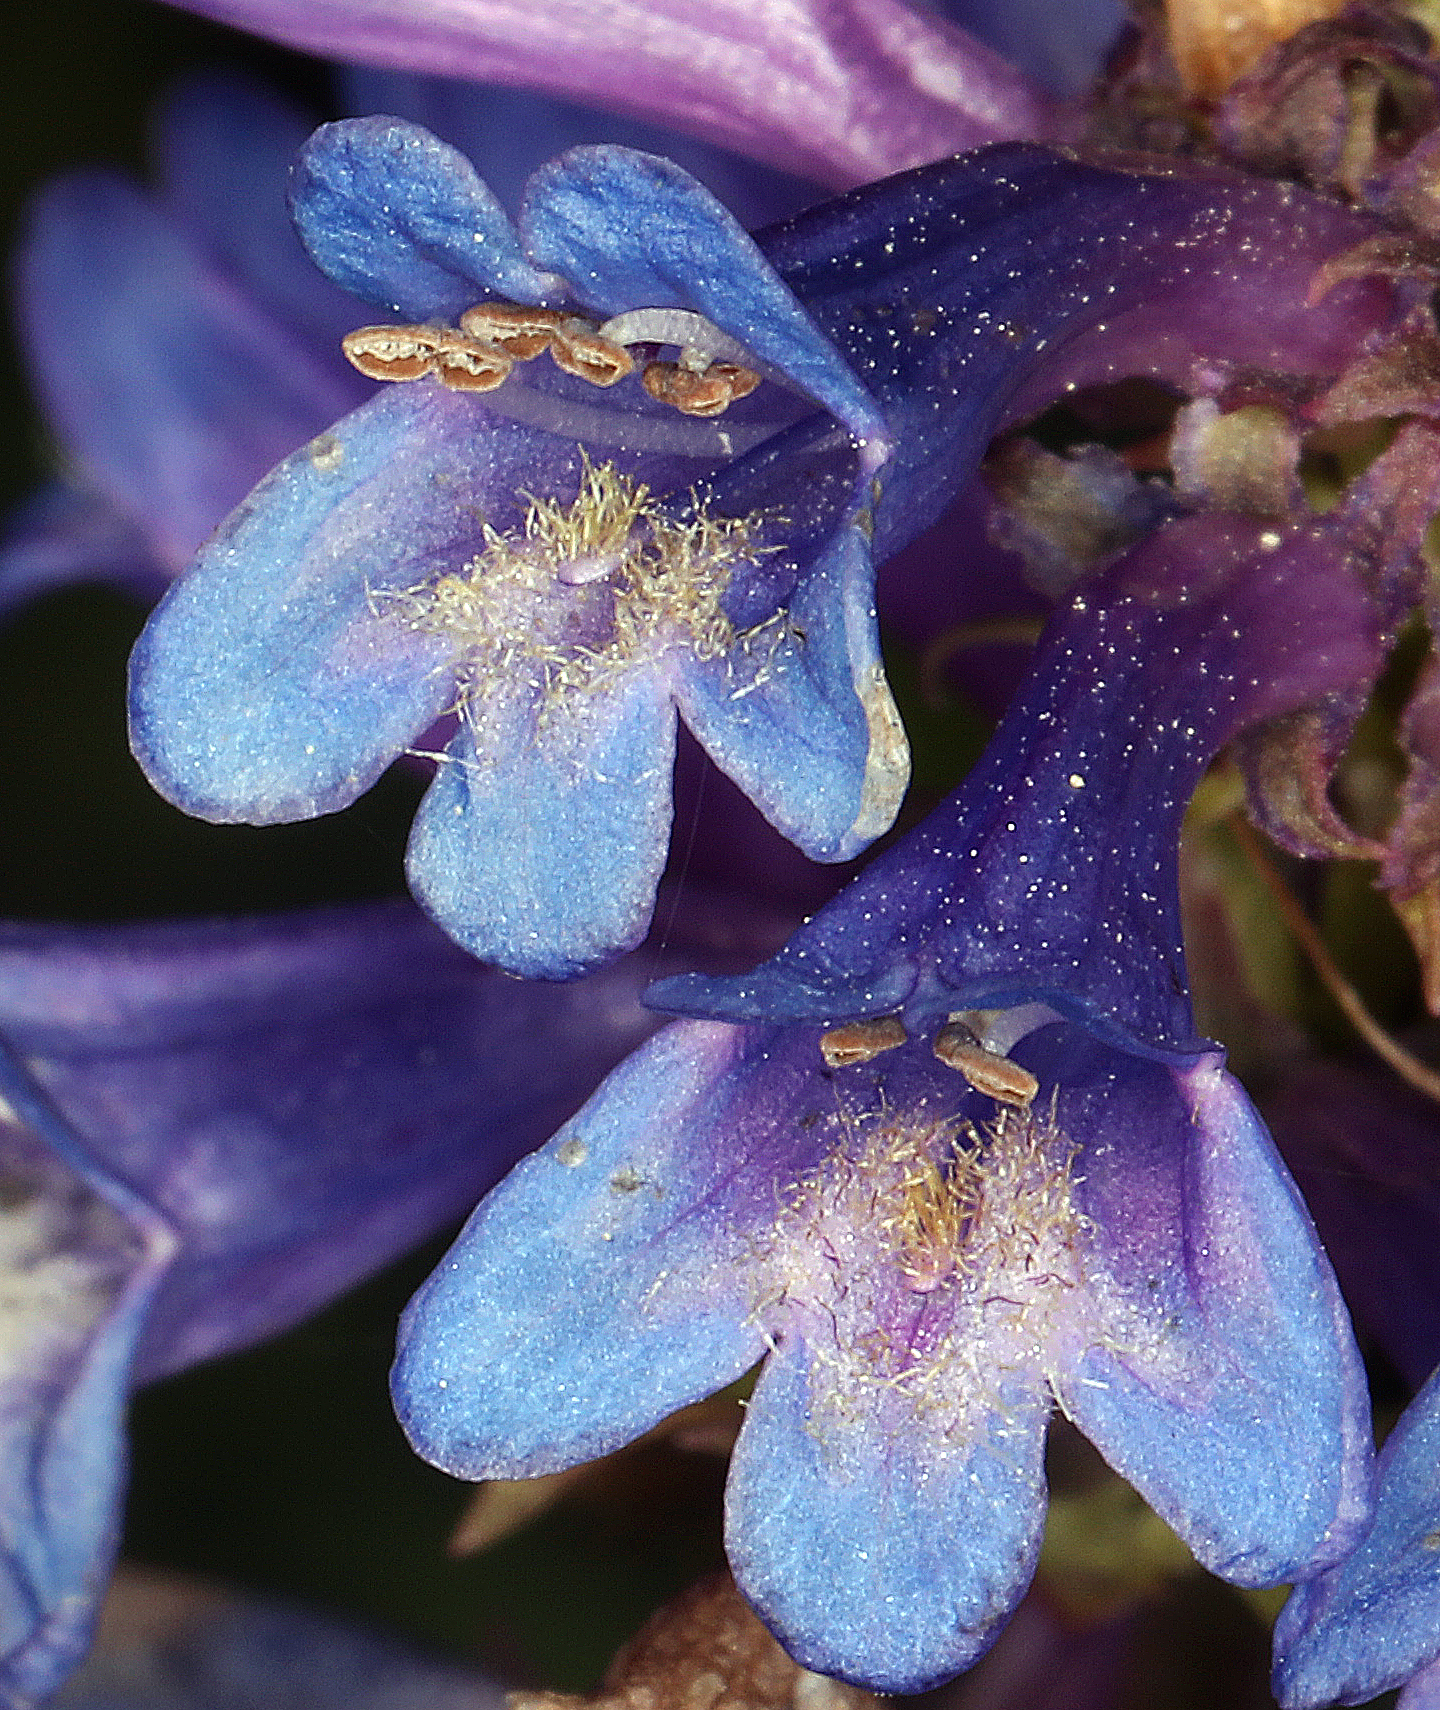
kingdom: Plantae
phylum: Tracheophyta
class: Magnoliopsida
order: Lamiales
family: Plantaginaceae
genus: Penstemon
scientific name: Penstemon rydbergii
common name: Rydberg's beardtongue
